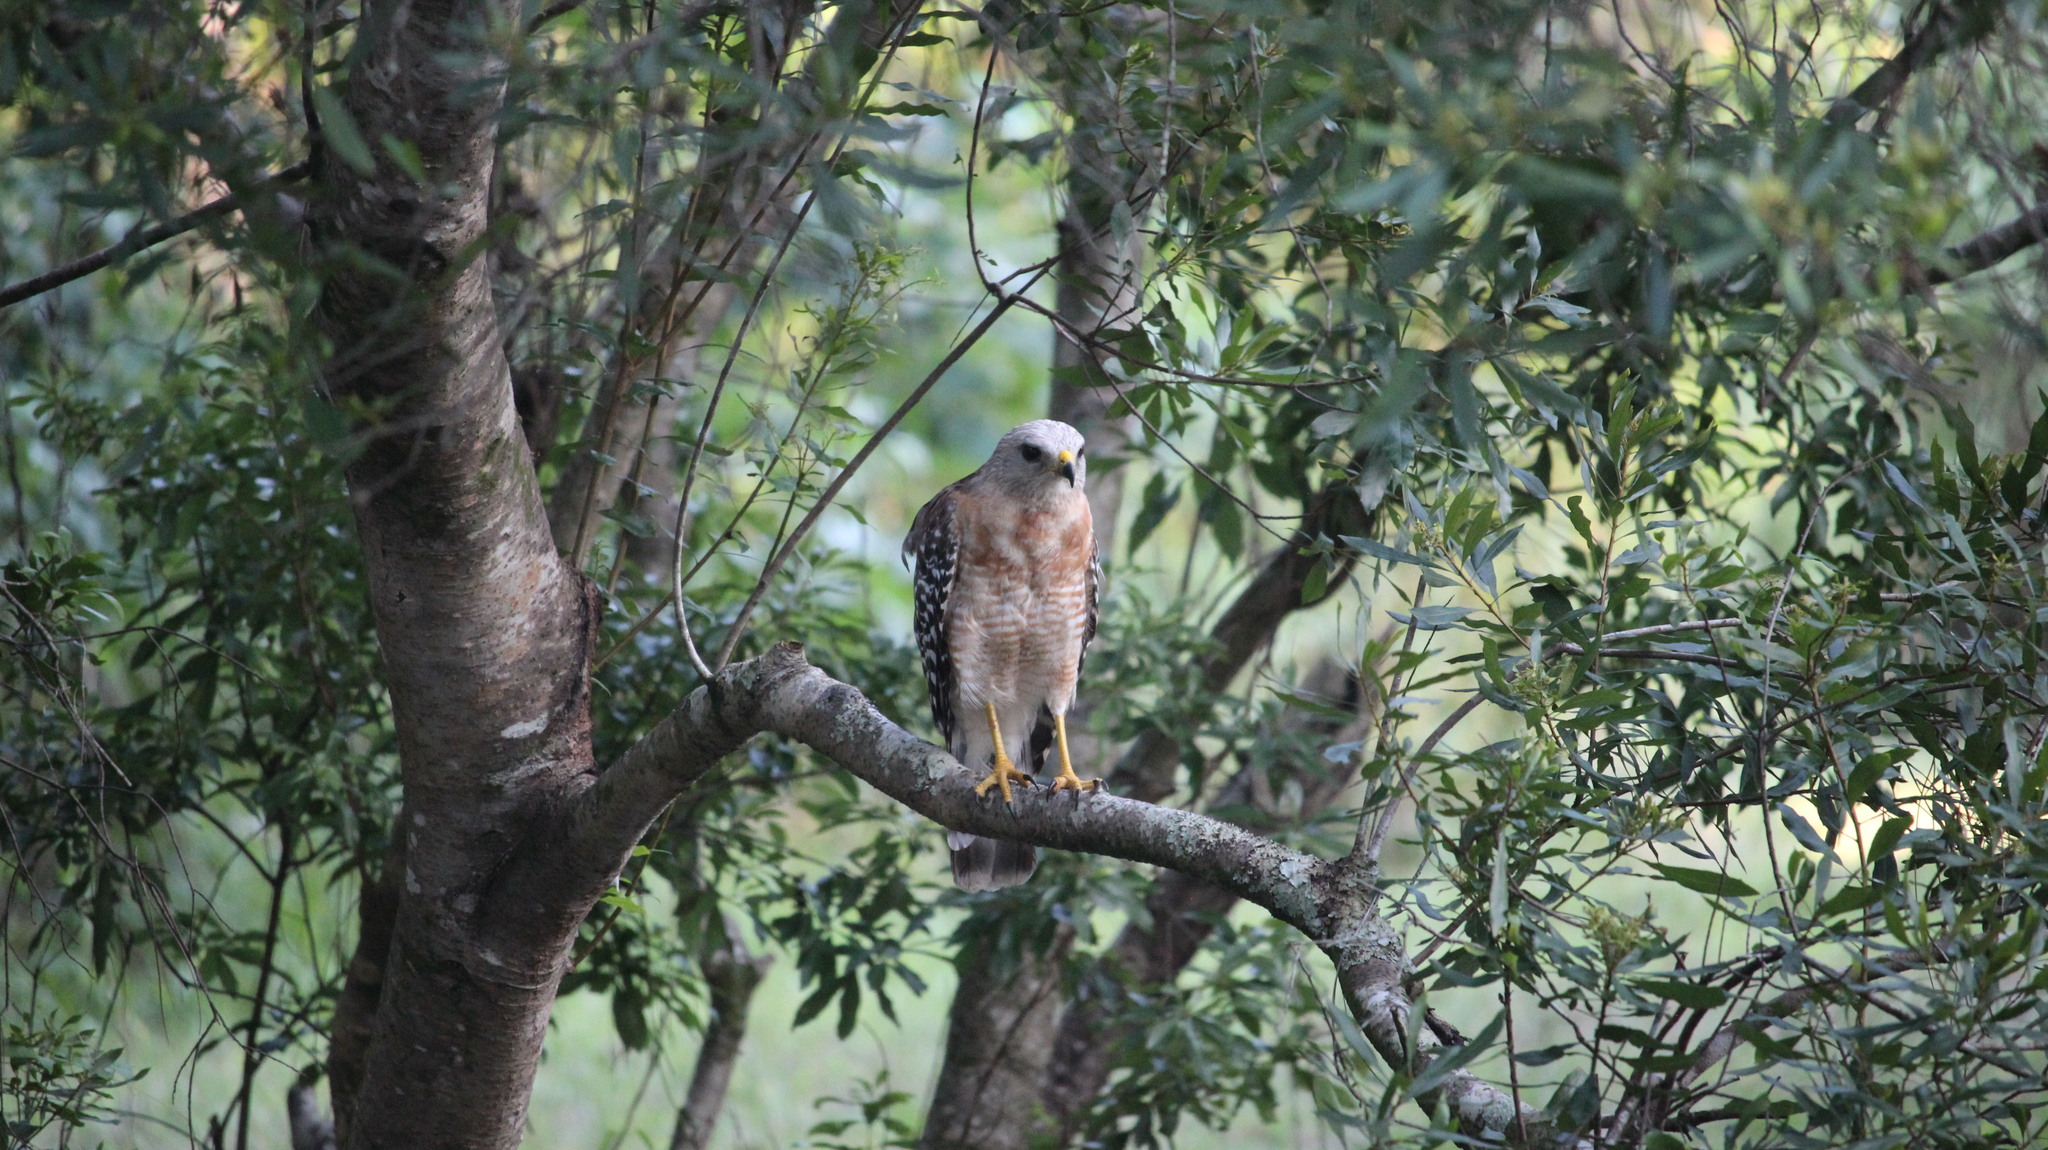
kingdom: Animalia
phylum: Chordata
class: Aves
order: Accipitriformes
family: Accipitridae
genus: Buteo
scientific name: Buteo lineatus
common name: Red-shouldered hawk
